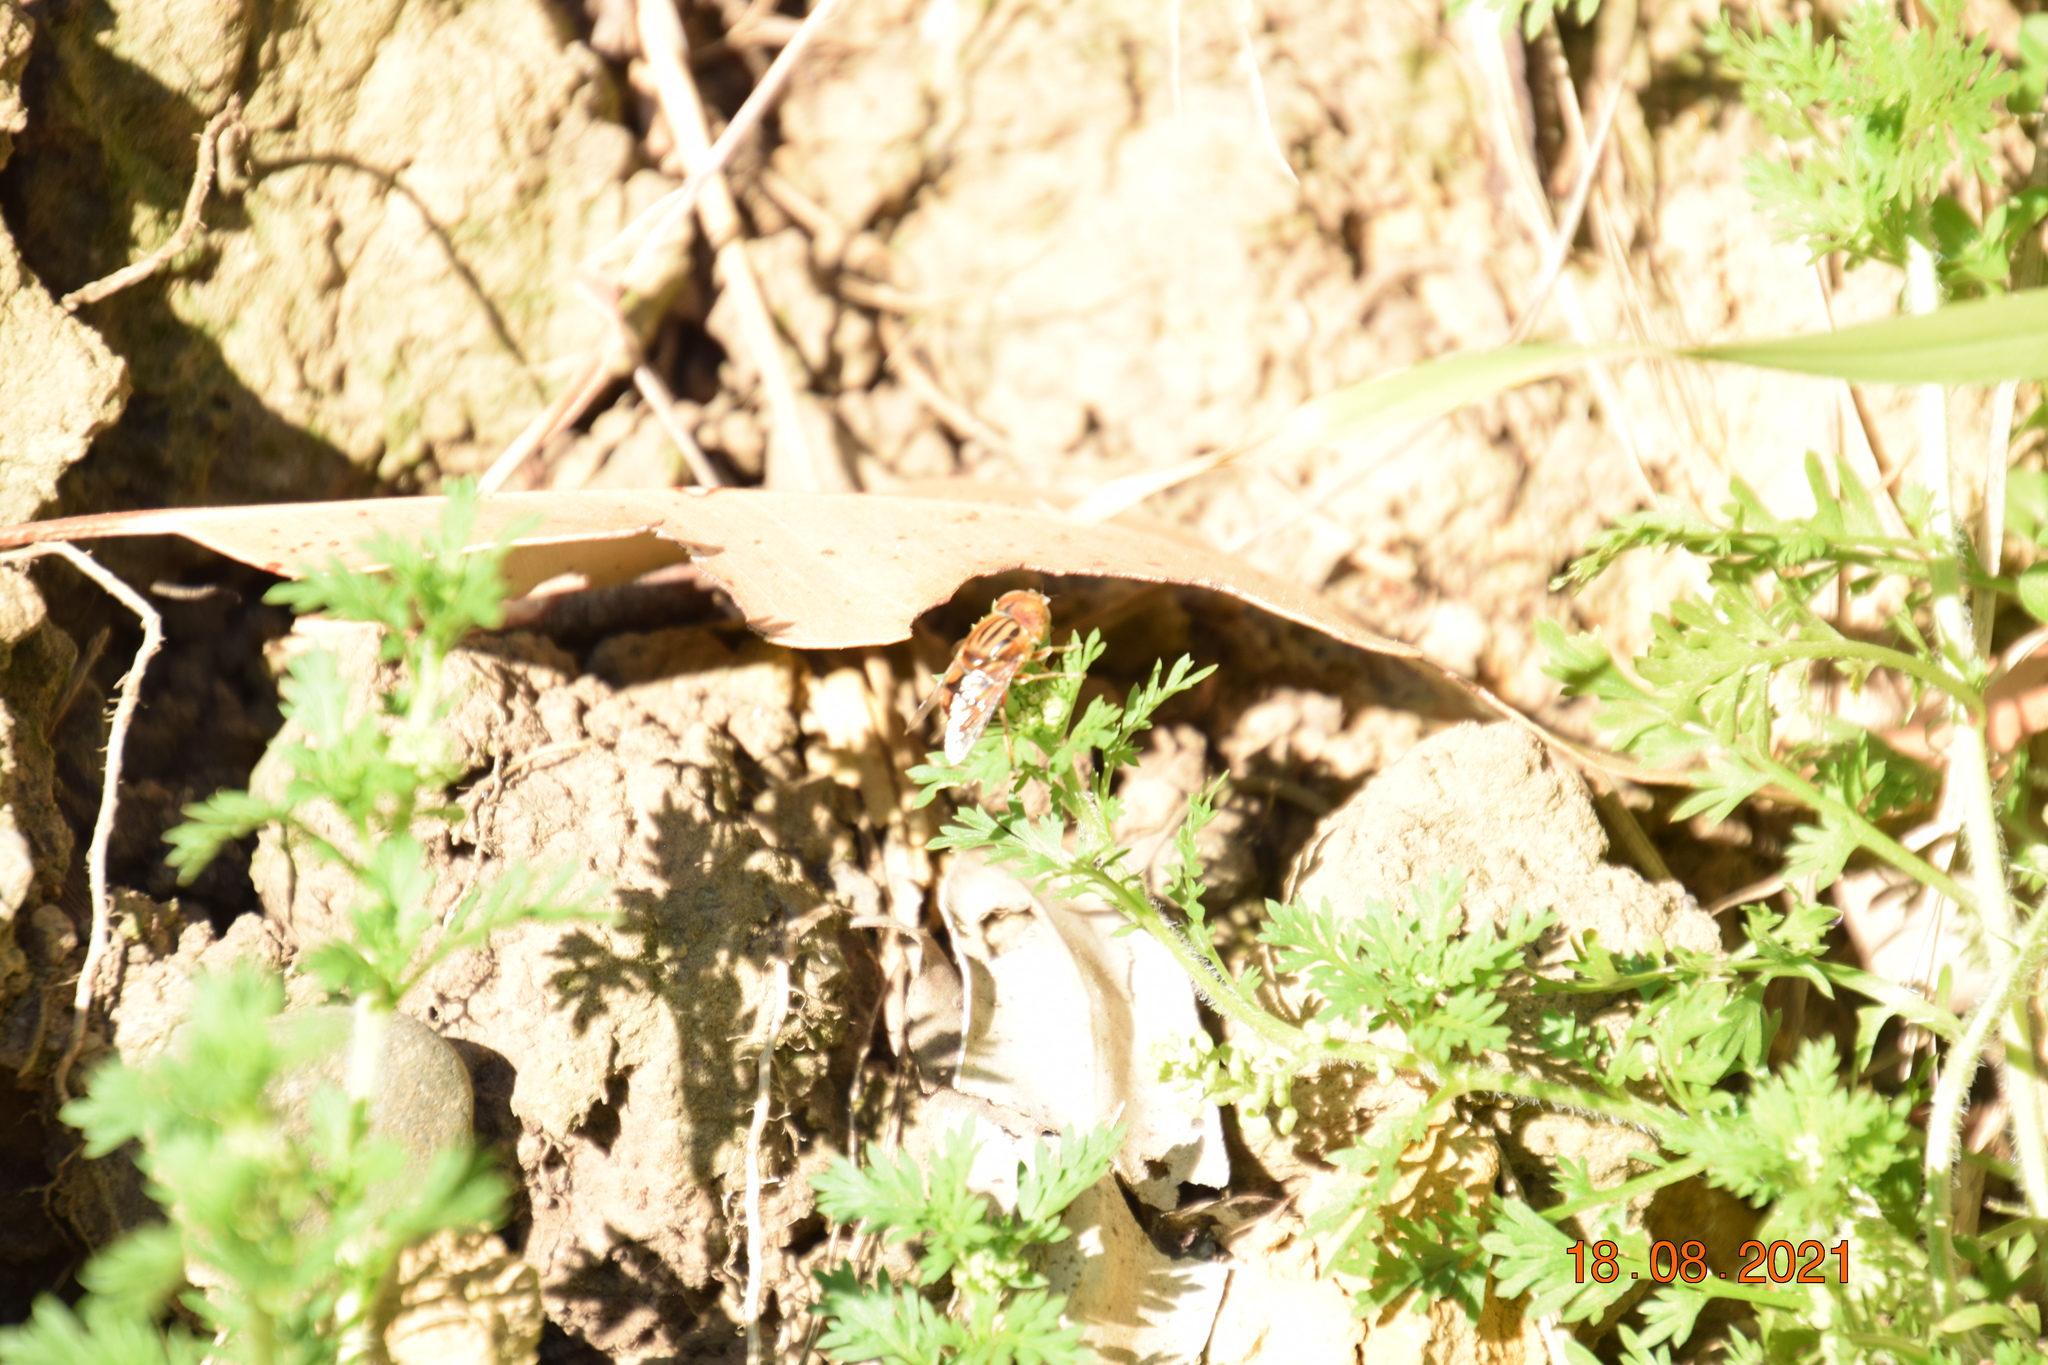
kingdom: Animalia
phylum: Arthropoda
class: Insecta
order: Diptera
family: Syrphidae
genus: Eristalinus
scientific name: Eristalinus punctulatus
